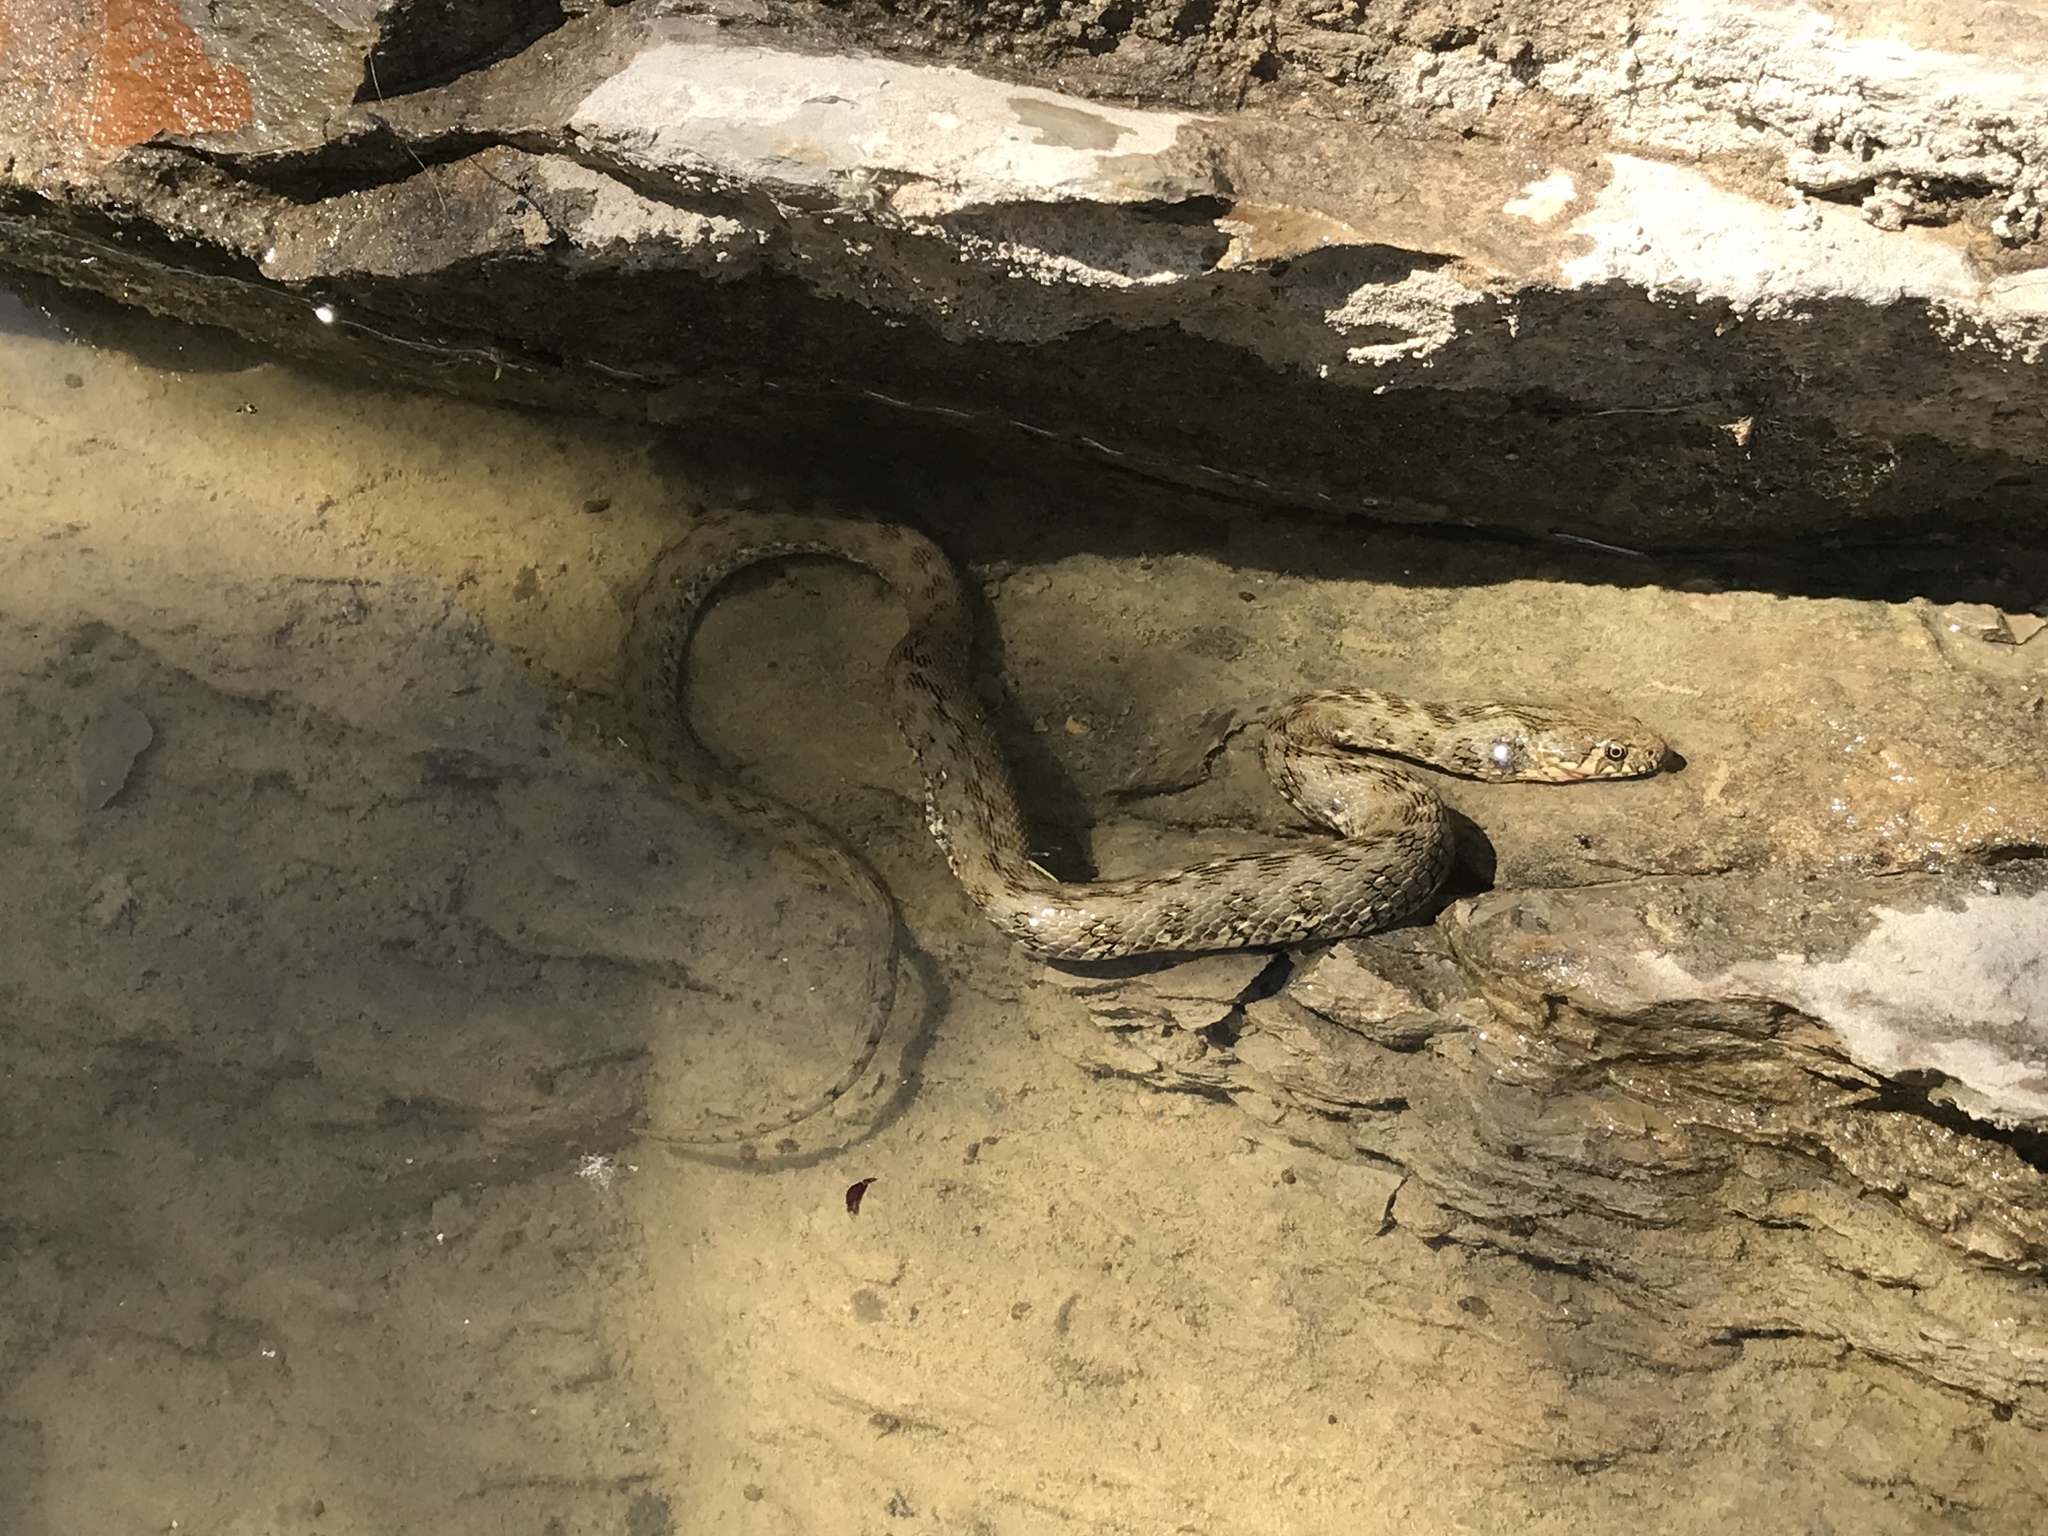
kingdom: Animalia
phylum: Chordata
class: Squamata
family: Colubridae
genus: Natrix
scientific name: Natrix maura
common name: Viperine water snake
